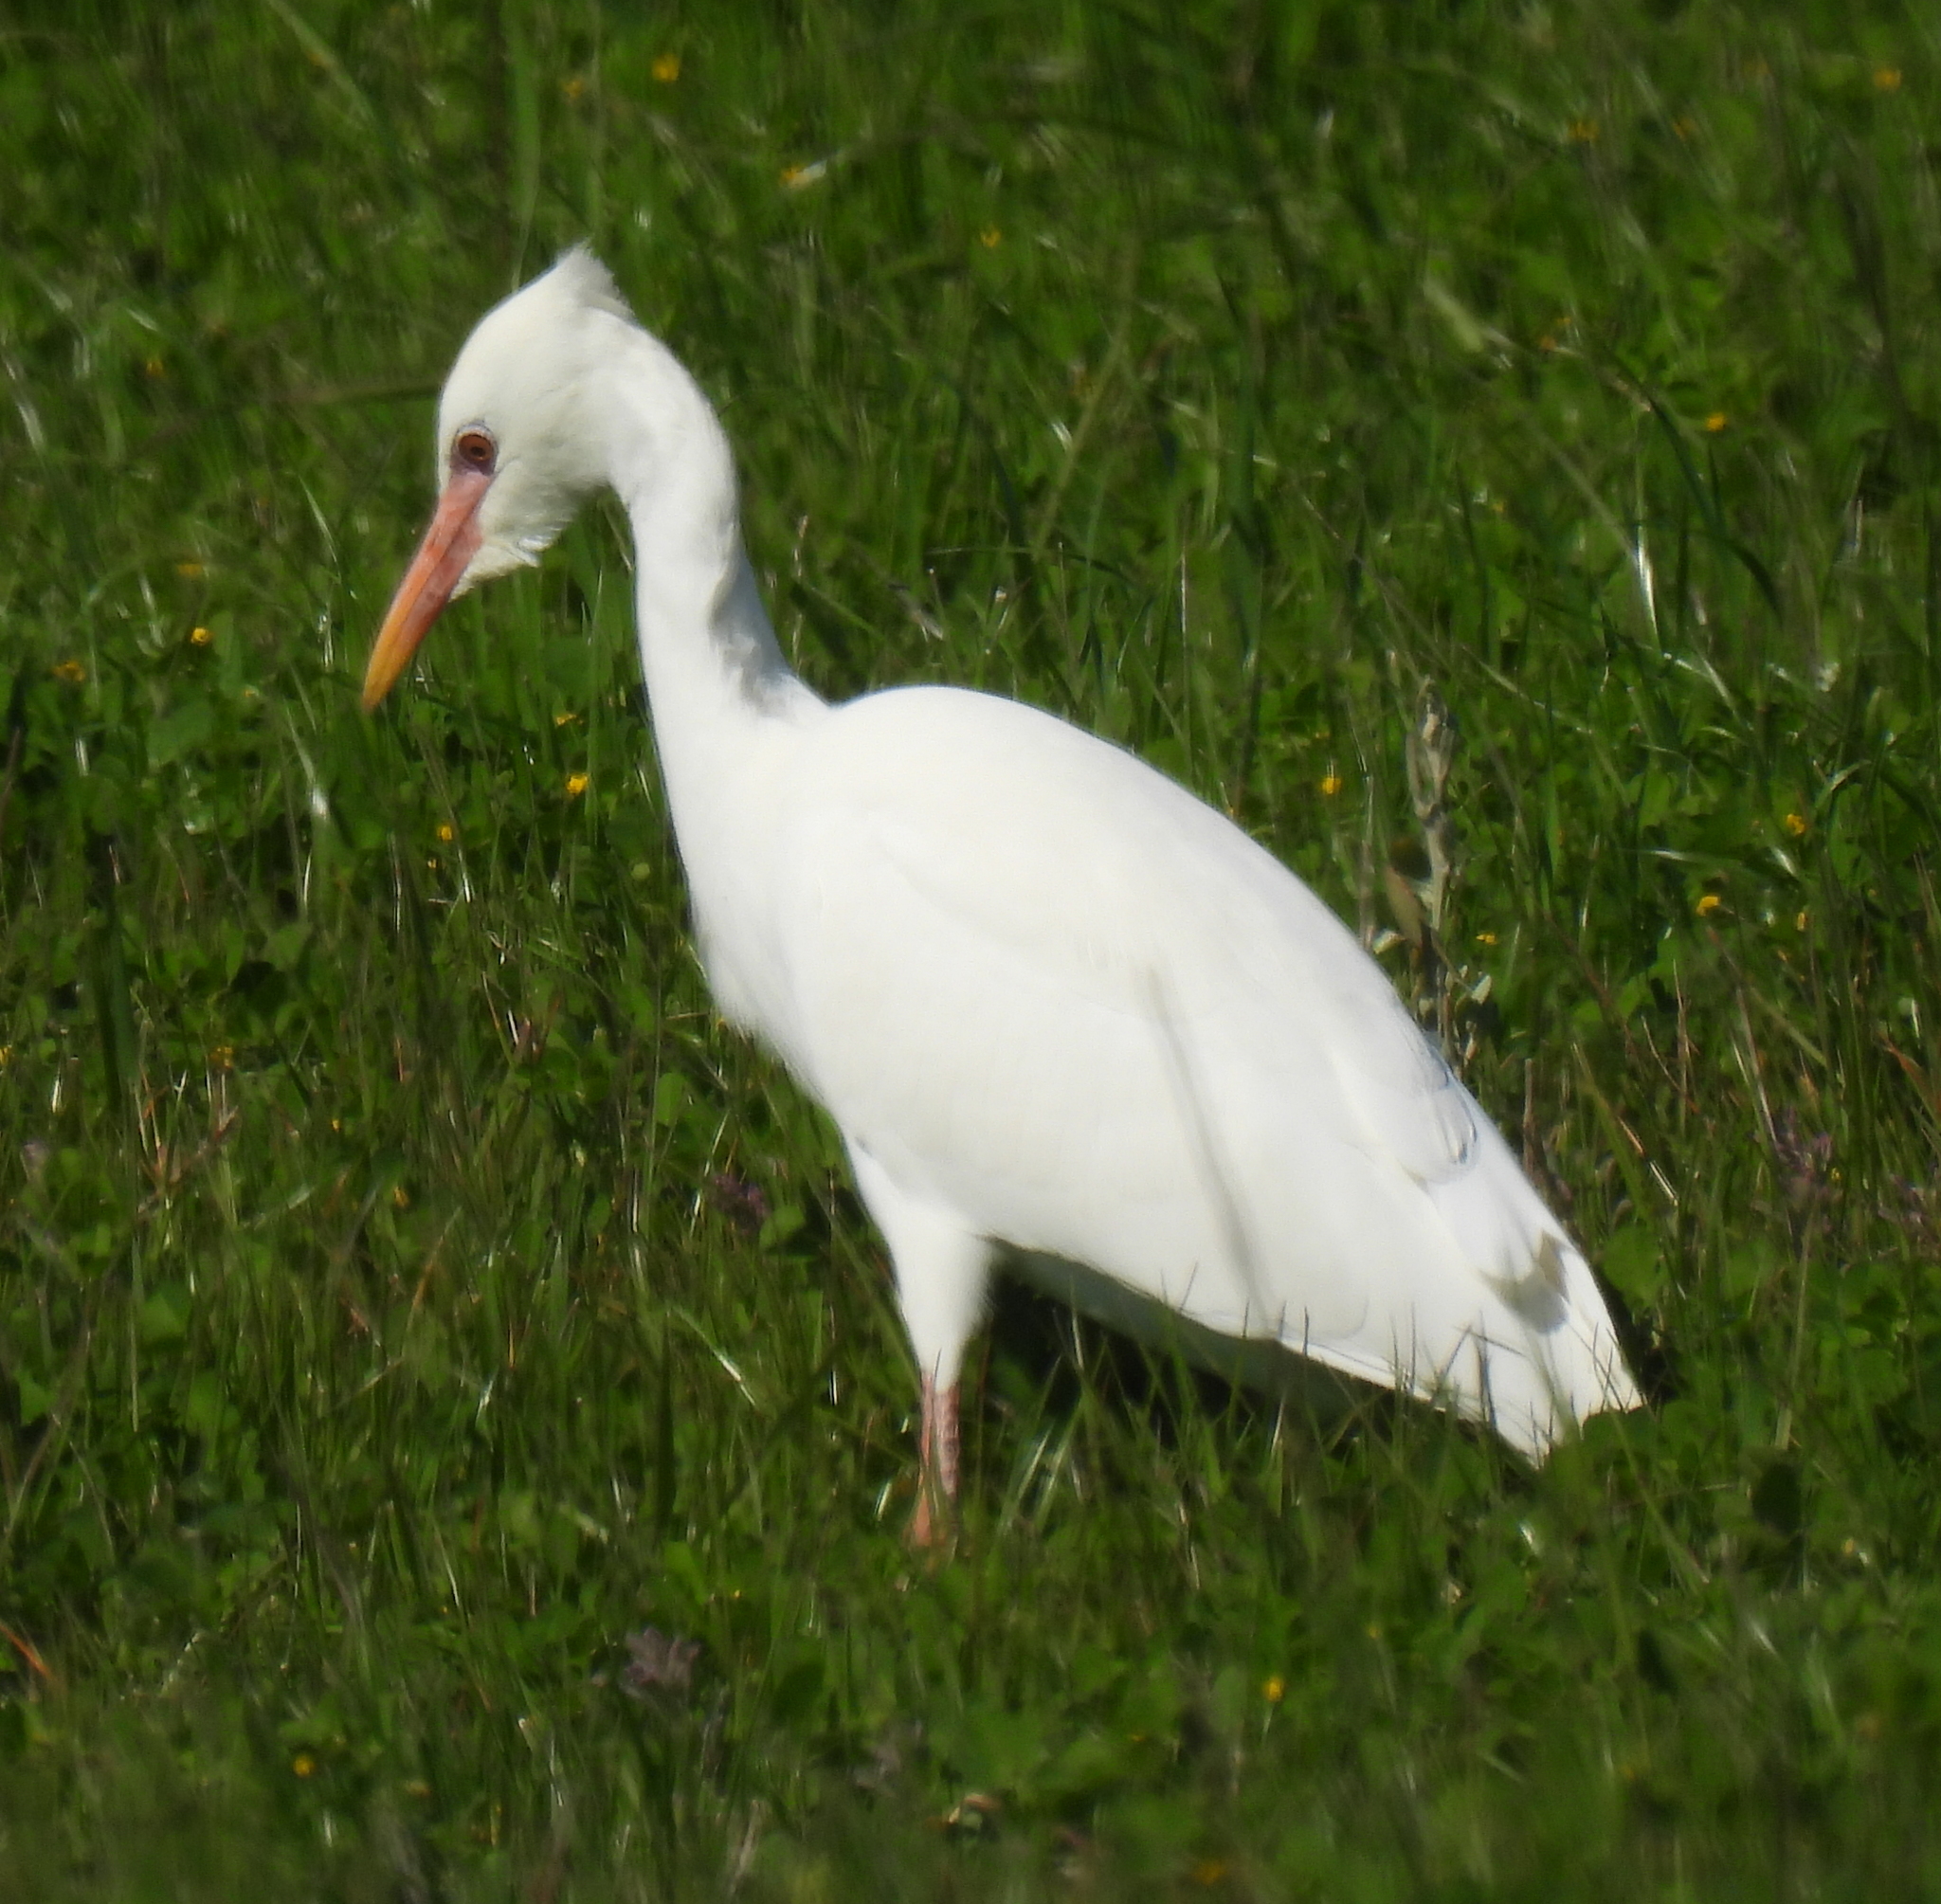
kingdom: Animalia
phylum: Chordata
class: Aves
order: Pelecaniformes
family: Ardeidae
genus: Bubulcus
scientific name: Bubulcus ibis
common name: Cattle egret
